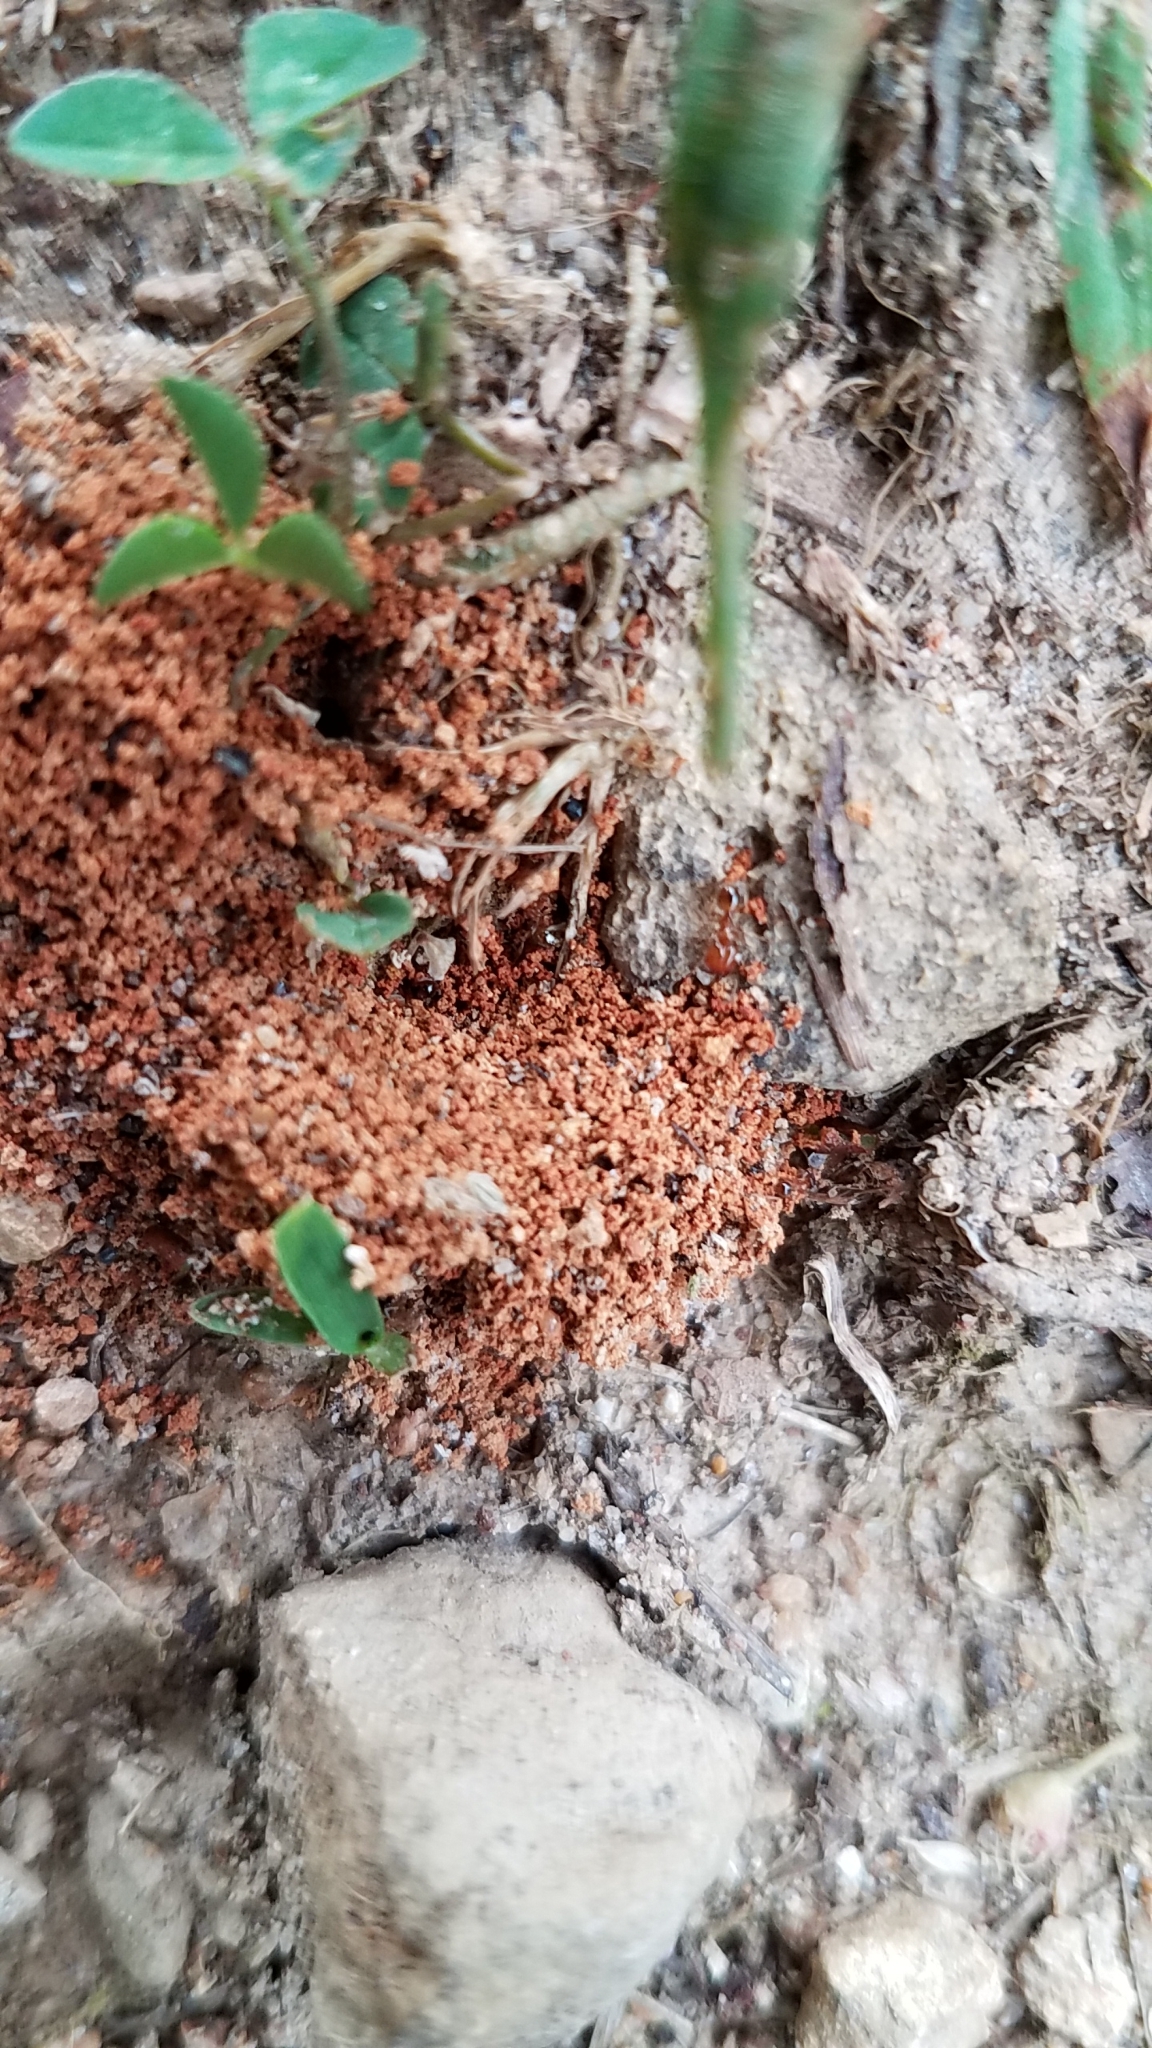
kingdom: Animalia
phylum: Arthropoda
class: Insecta
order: Hymenoptera
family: Formicidae
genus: Pheidole
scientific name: Pheidole bicarinata
